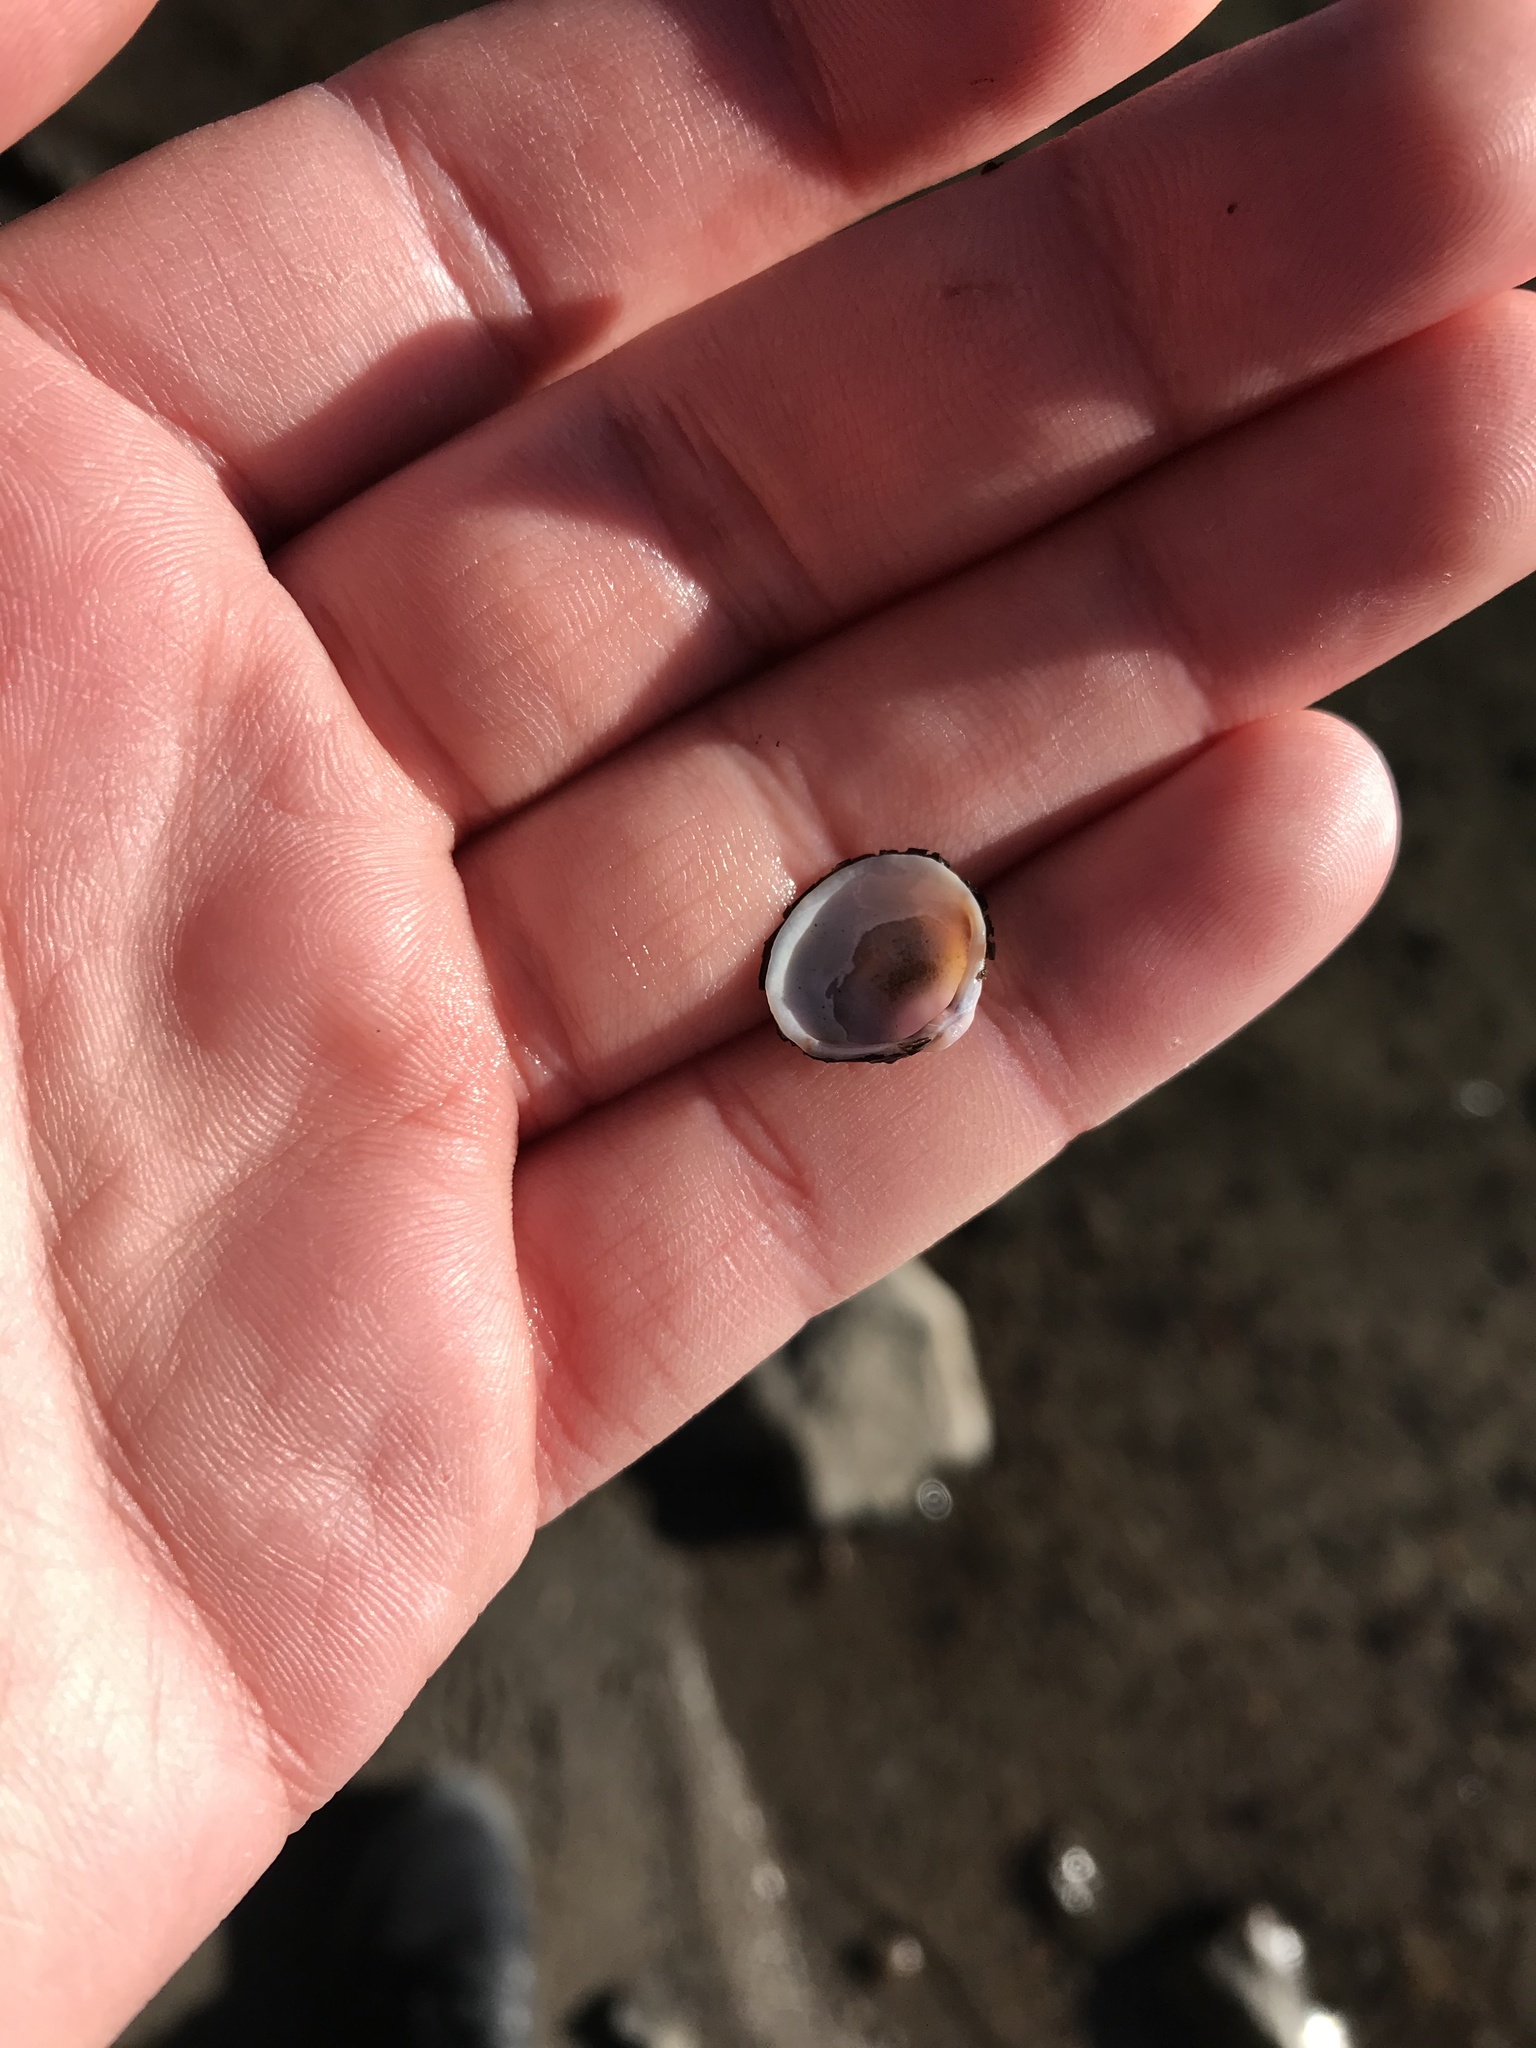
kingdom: Animalia
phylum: Mollusca
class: Bivalvia
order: Venerida
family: Cyrenidae
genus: Corbicula
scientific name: Corbicula fluminea
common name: Asian clam
